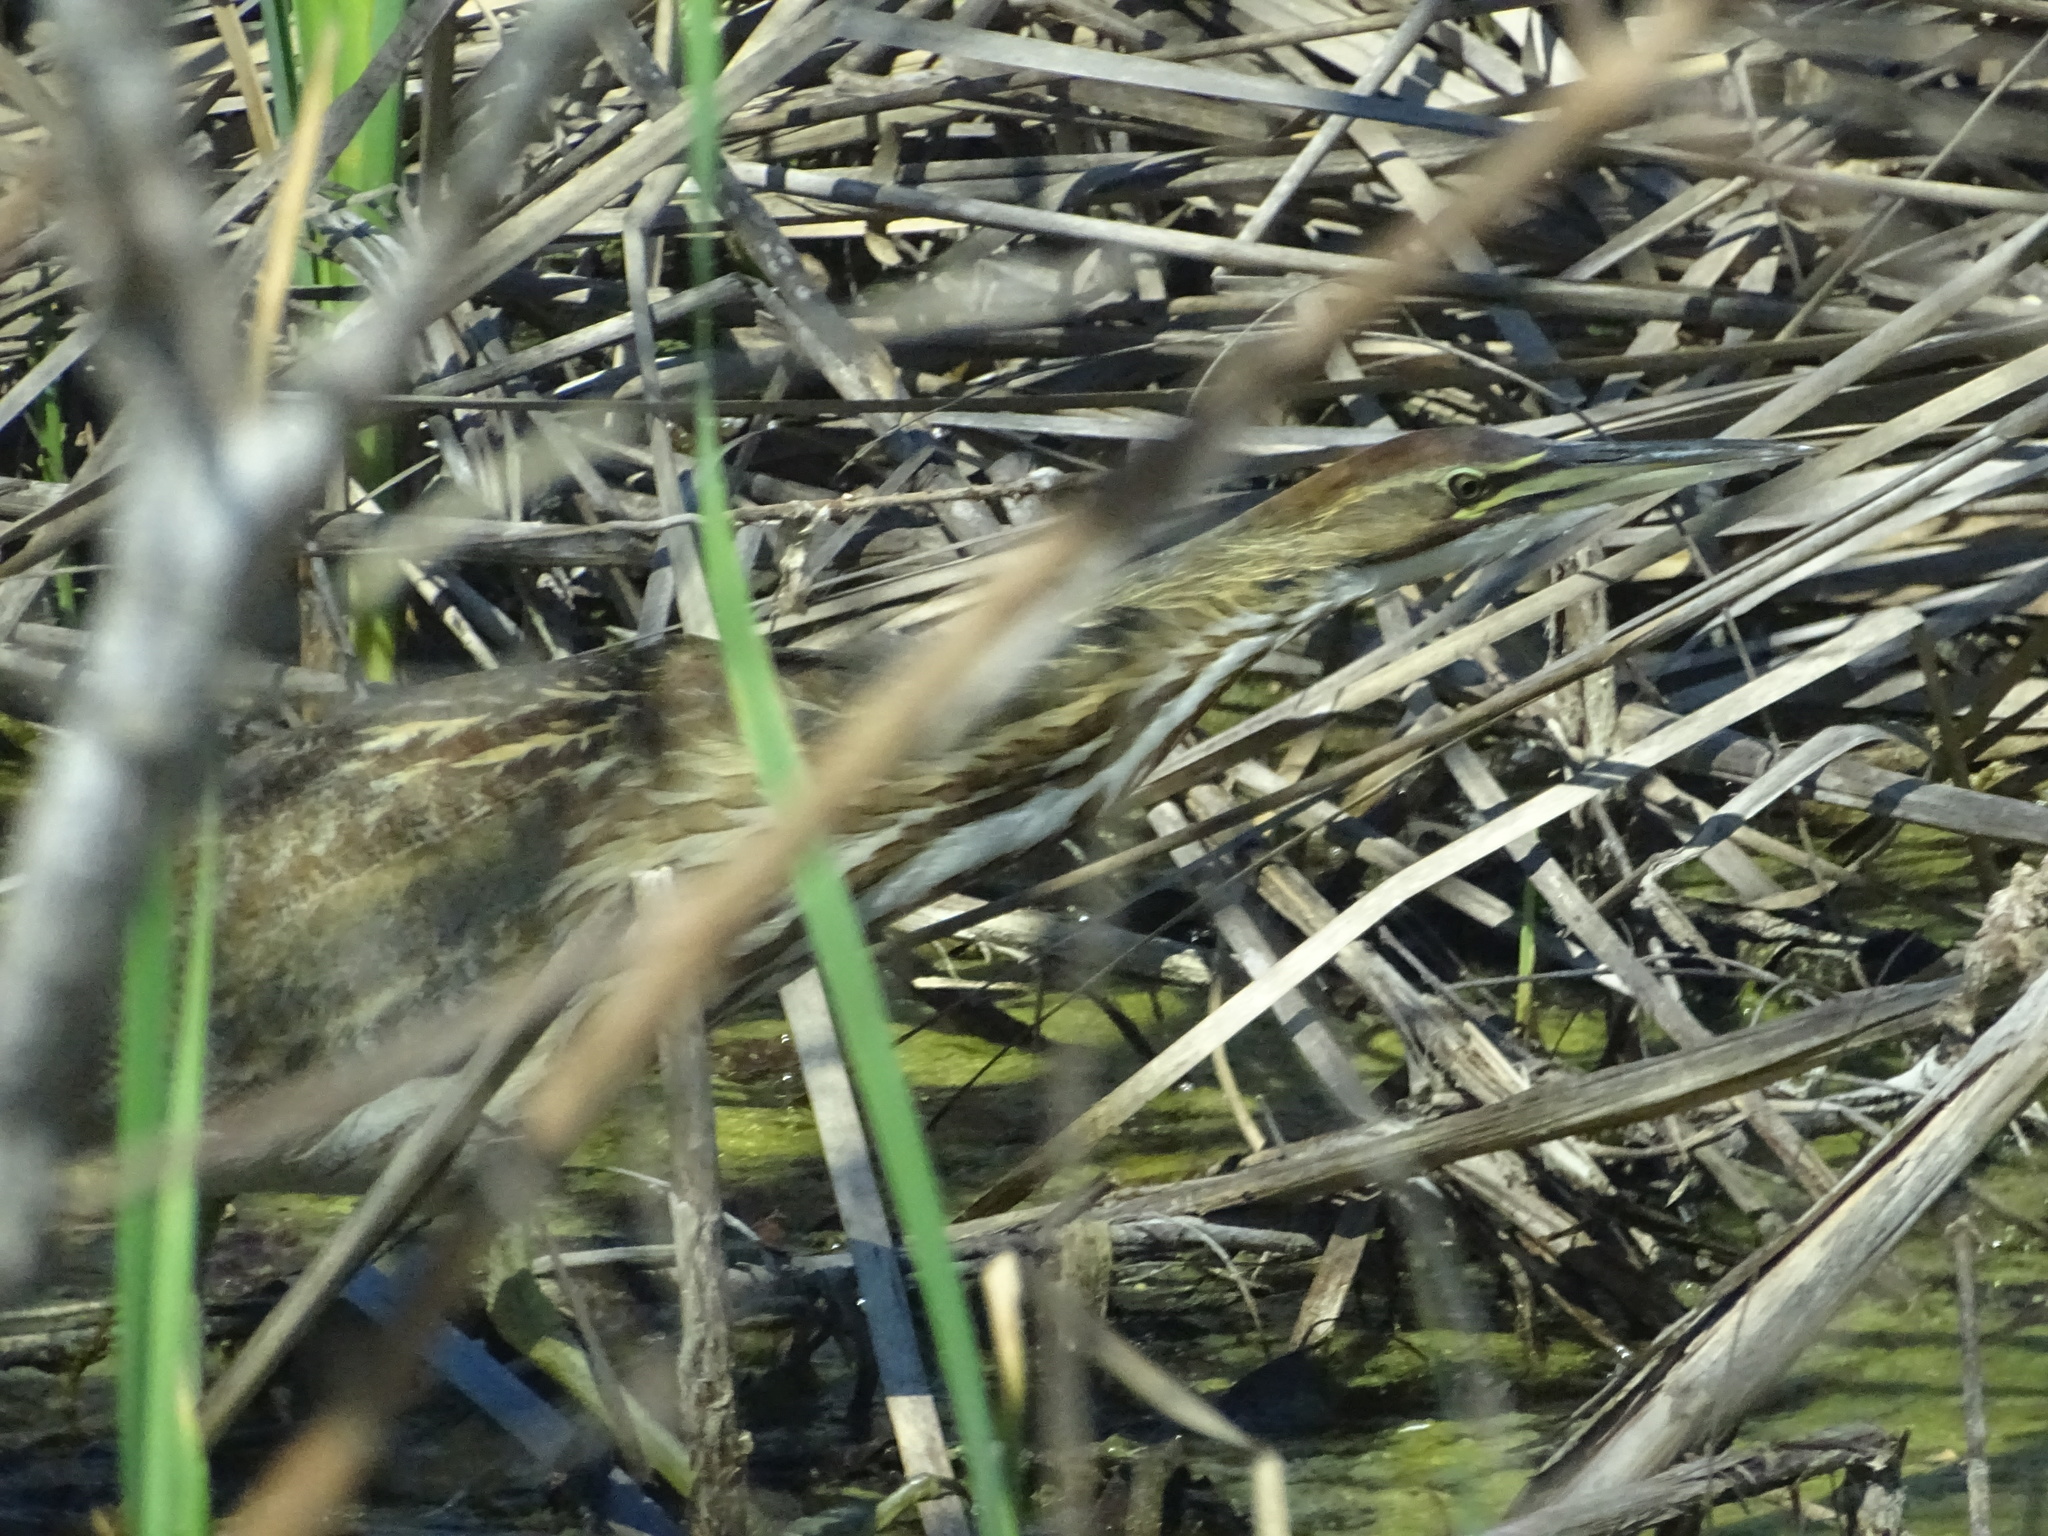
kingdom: Animalia
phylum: Chordata
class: Aves
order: Pelecaniformes
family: Ardeidae
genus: Botaurus
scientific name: Botaurus lentiginosus
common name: American bittern
